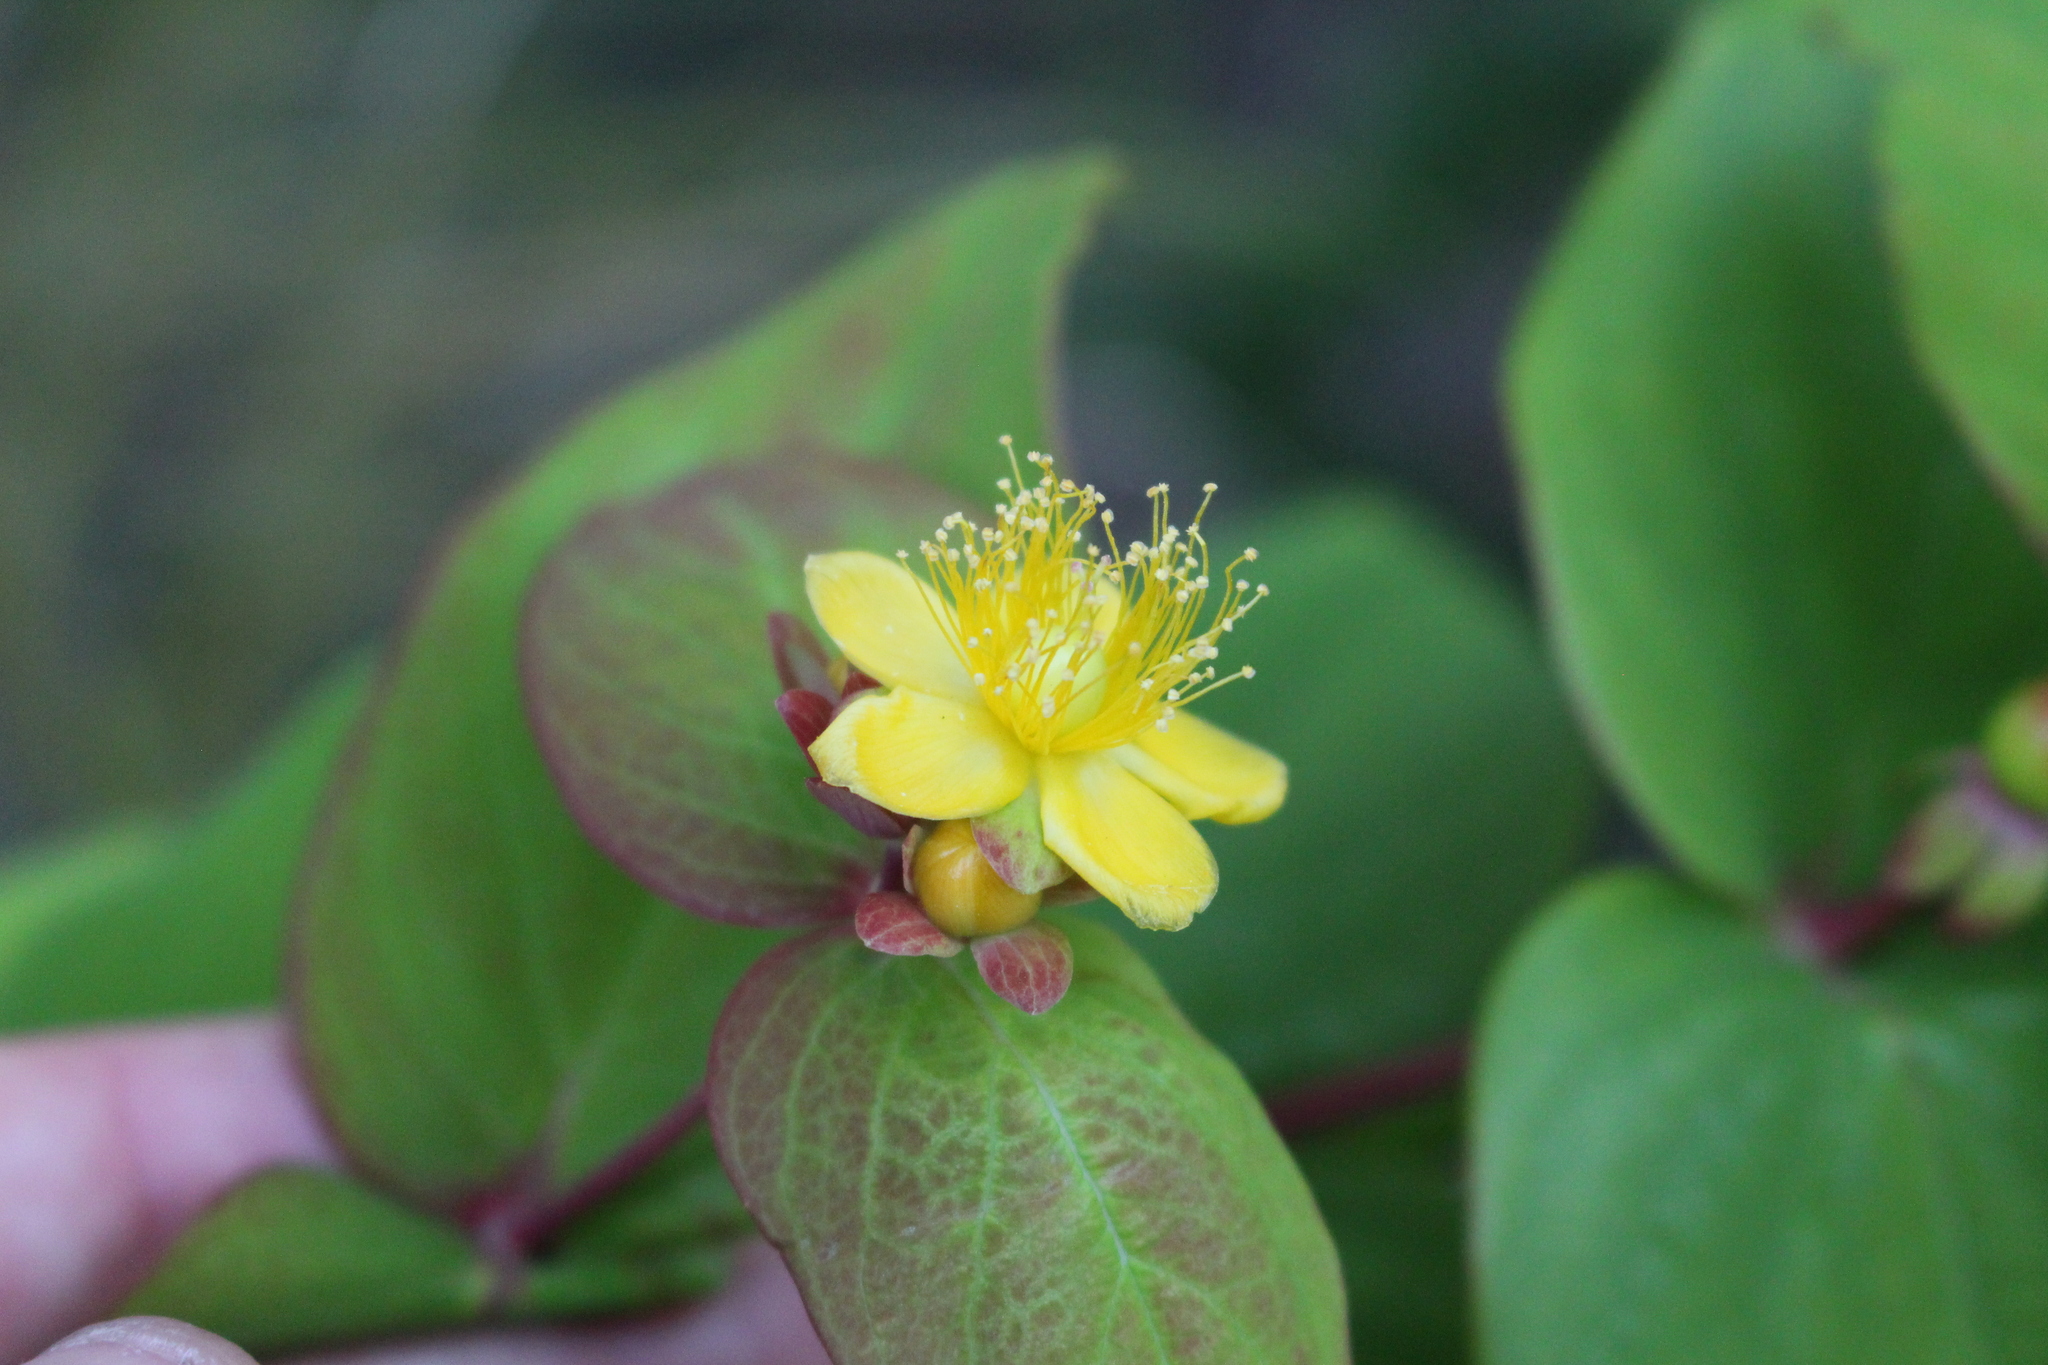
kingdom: Plantae
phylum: Tracheophyta
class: Magnoliopsida
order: Malpighiales
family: Hypericaceae
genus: Hypericum
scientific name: Hypericum androsaemum
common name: Sweet-amber
